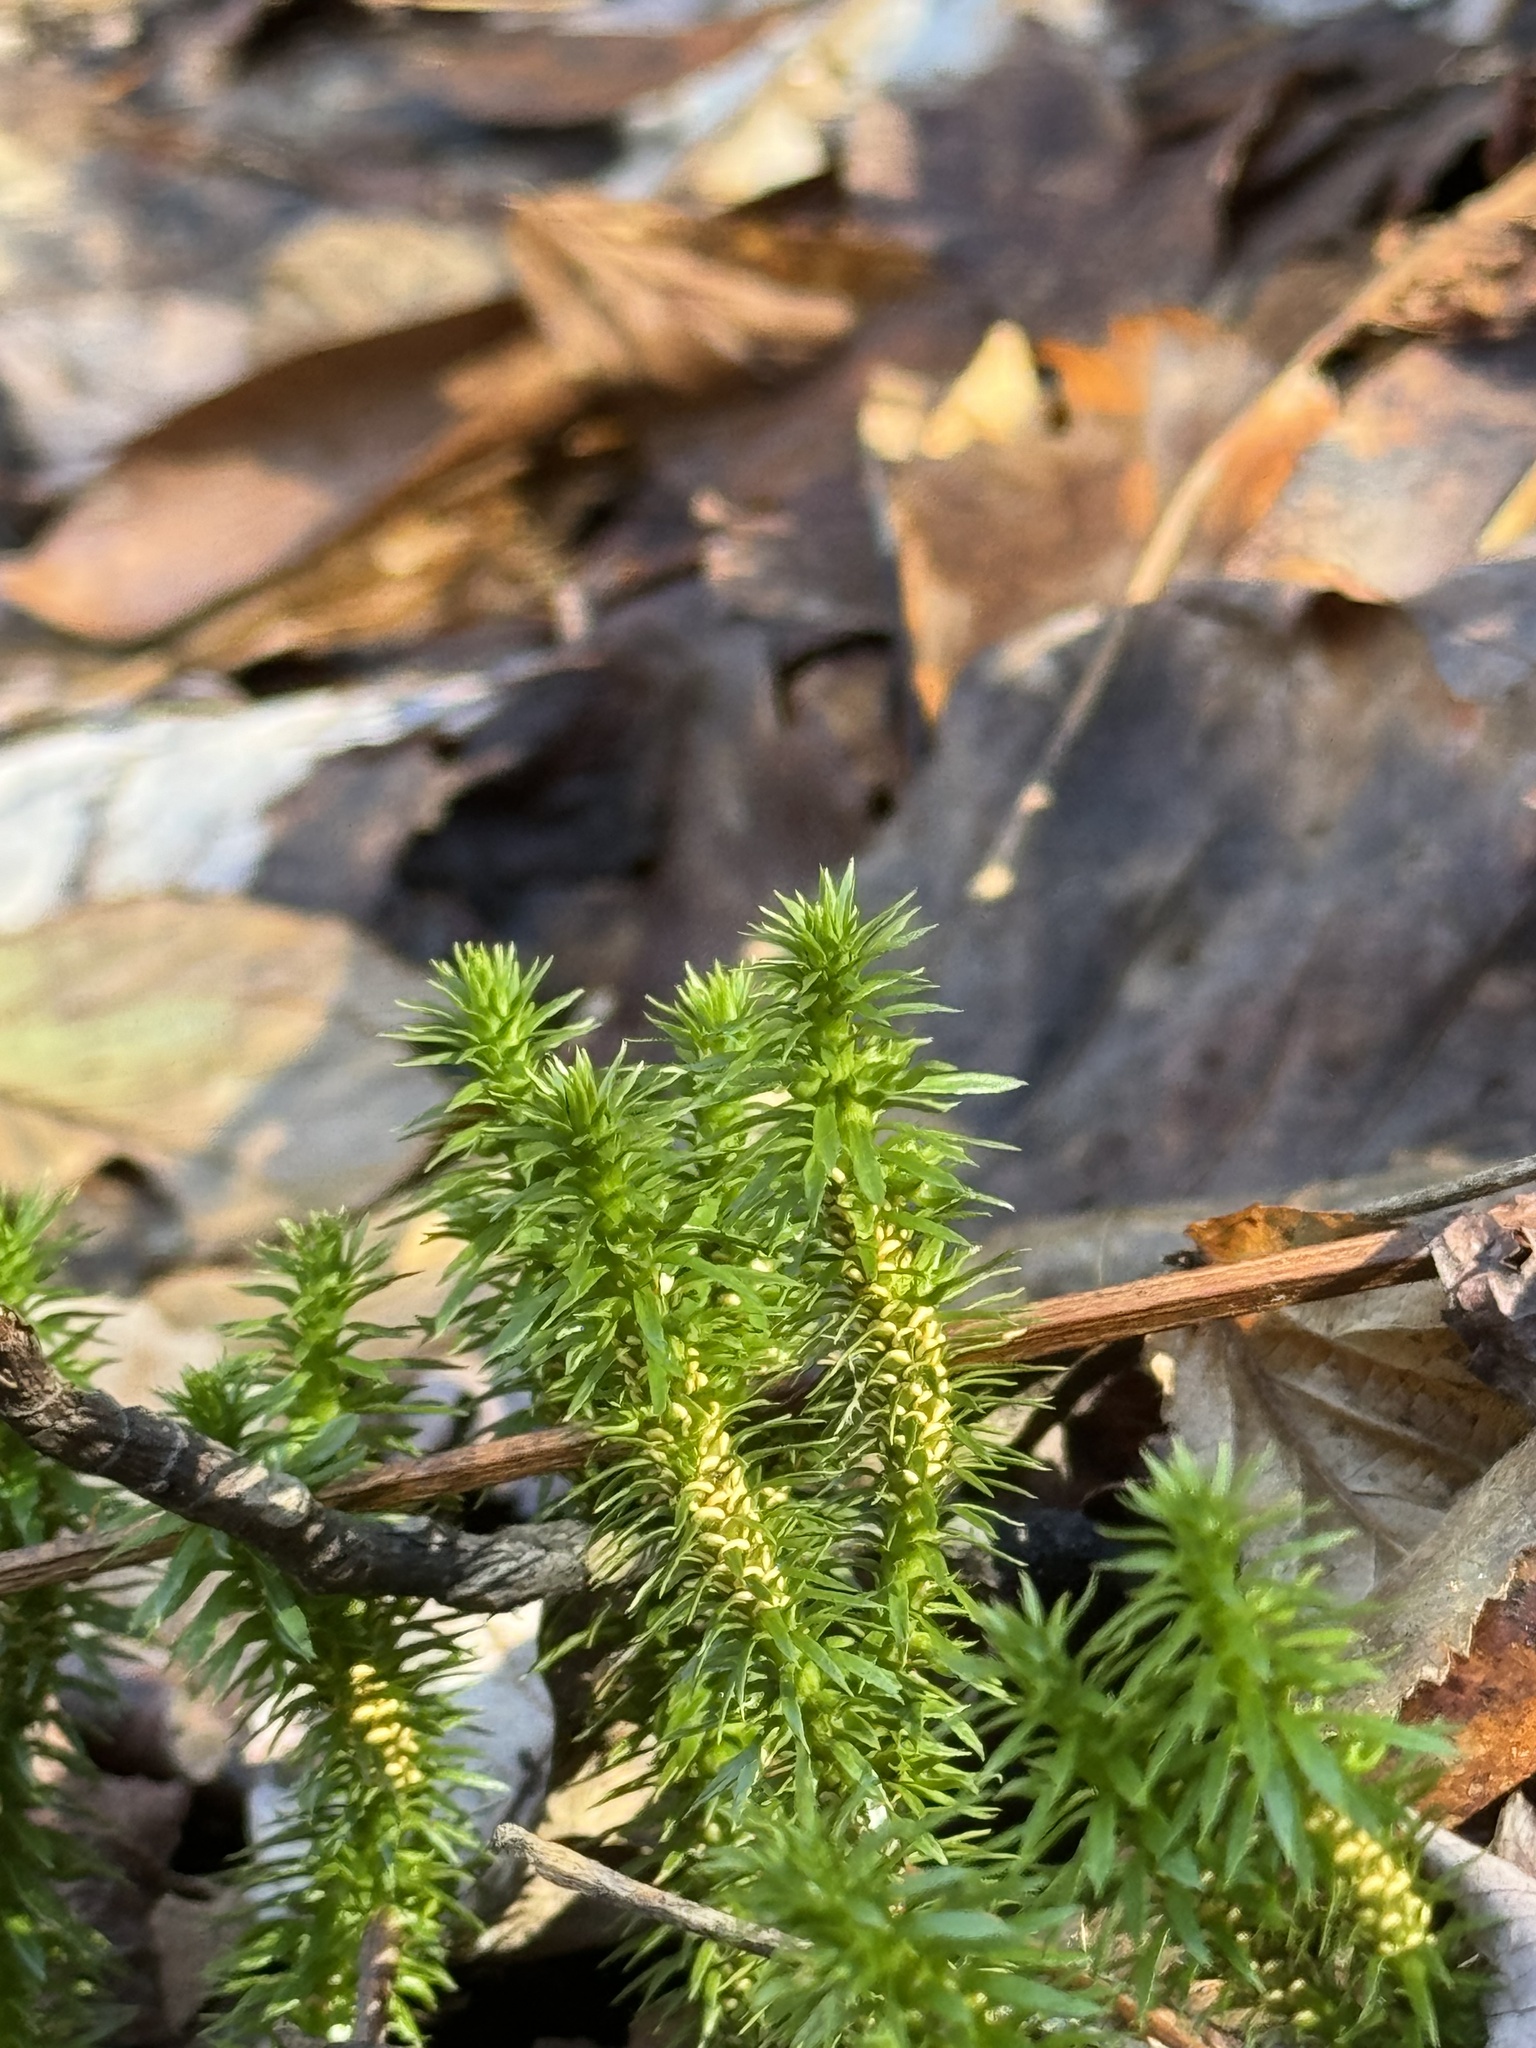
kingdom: Plantae
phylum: Tracheophyta
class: Lycopodiopsida
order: Lycopodiales
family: Lycopodiaceae
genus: Huperzia
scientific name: Huperzia lucidula
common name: Shining clubmoss
